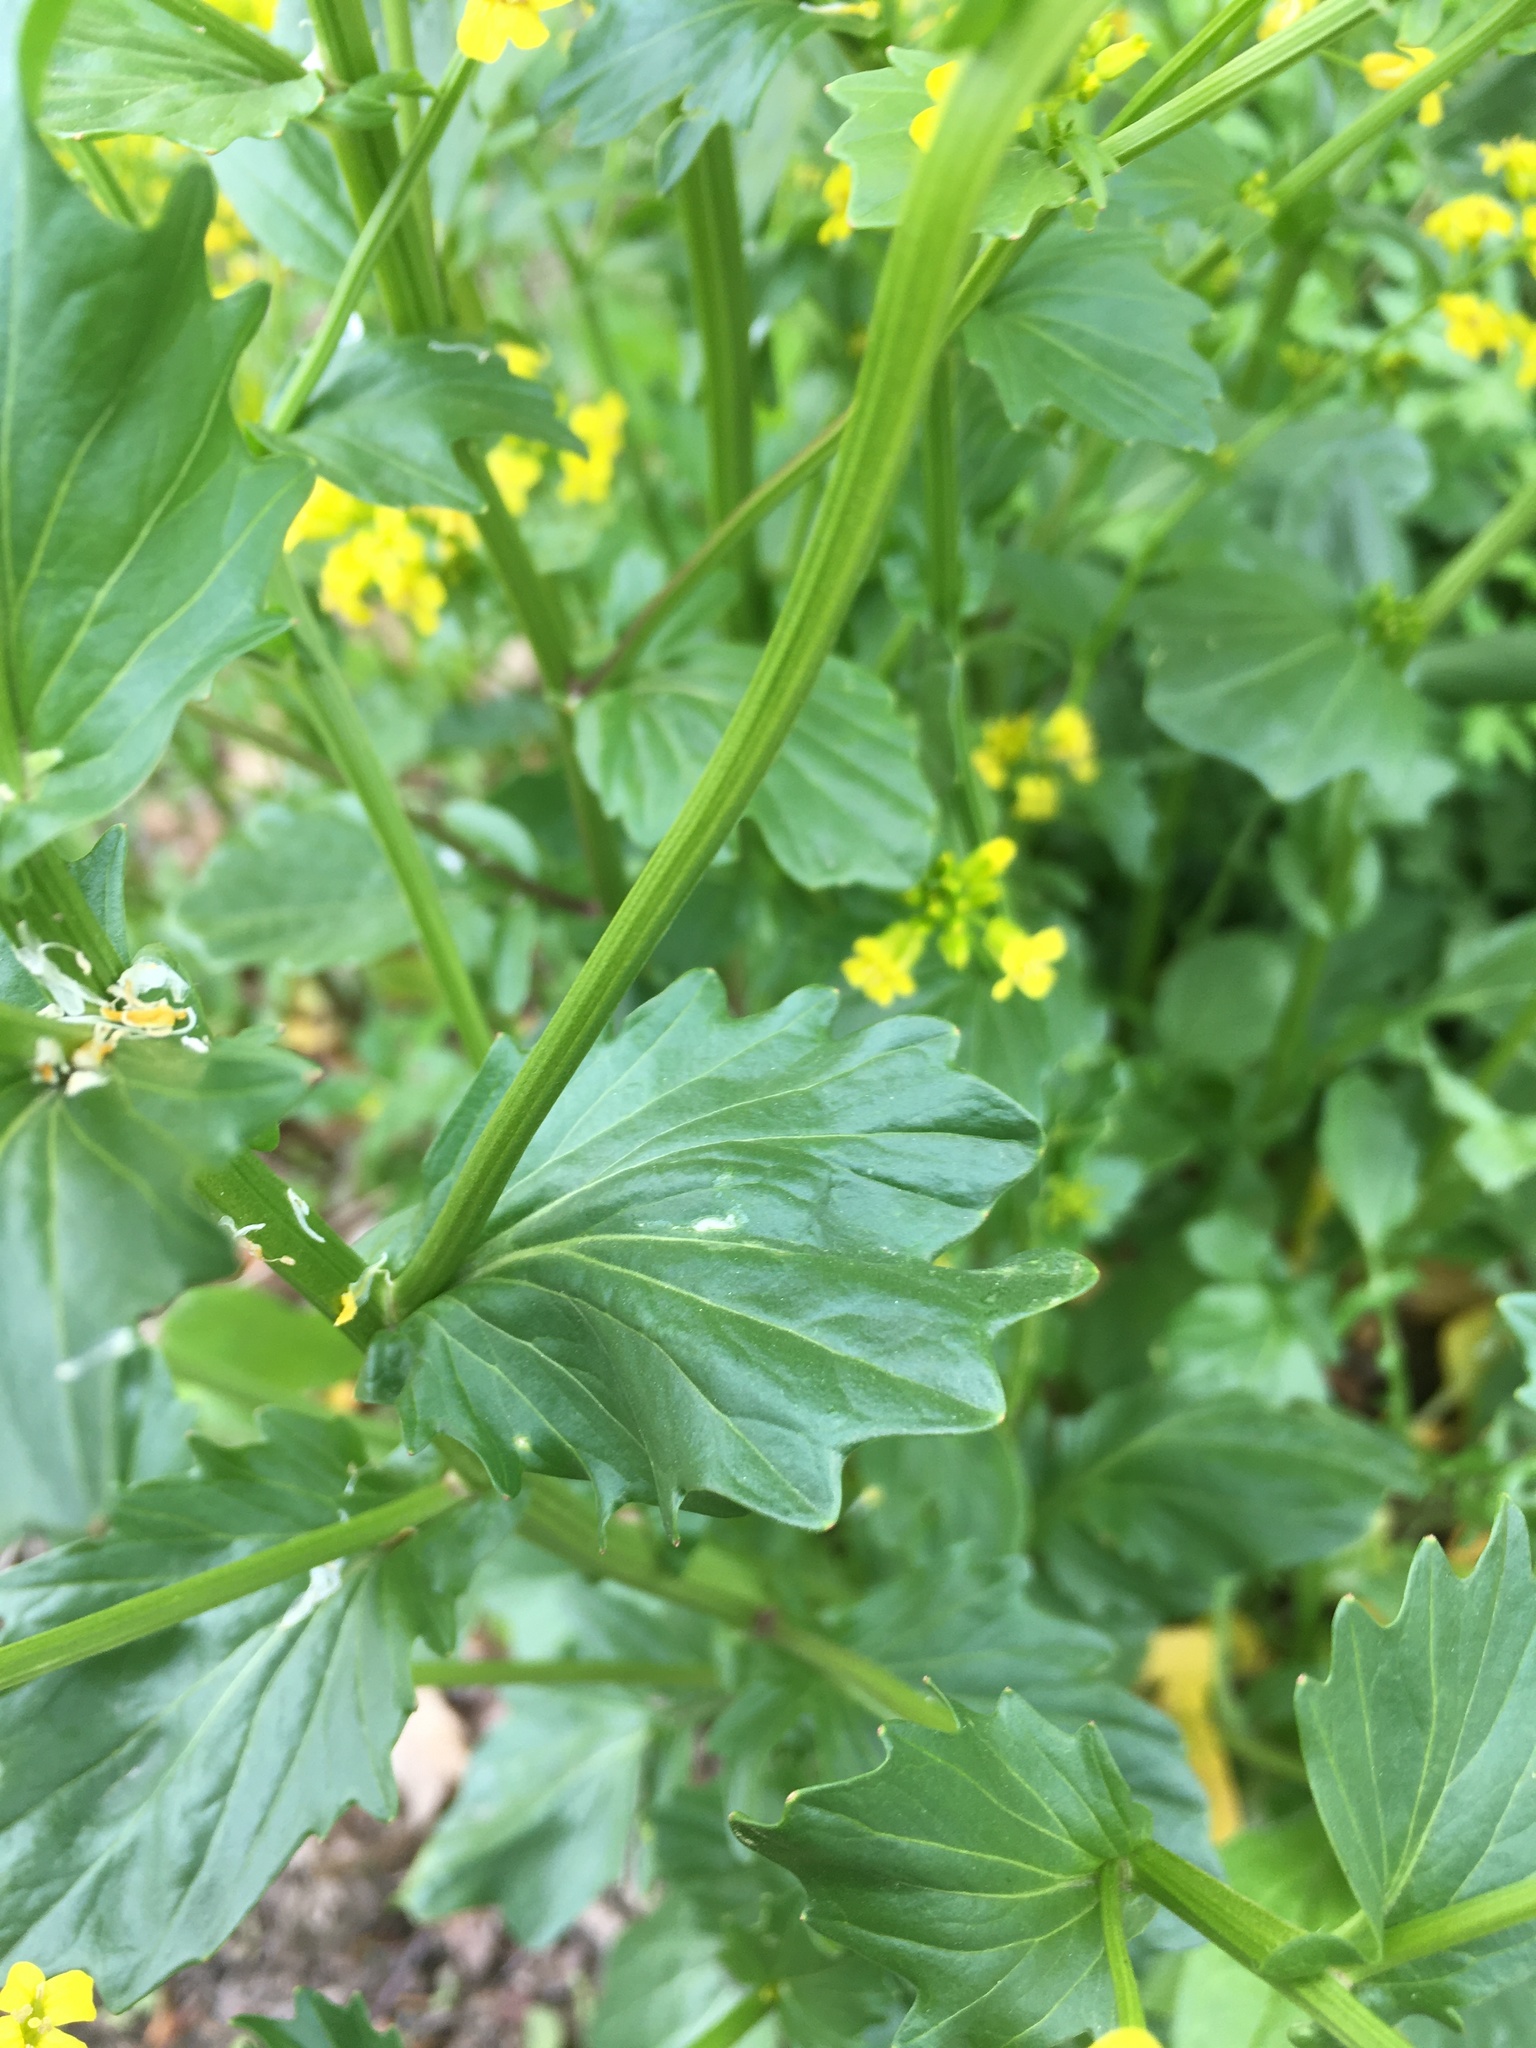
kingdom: Plantae
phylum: Tracheophyta
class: Magnoliopsida
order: Brassicales
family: Brassicaceae
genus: Barbarea
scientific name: Barbarea vulgaris
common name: Cressy-greens
